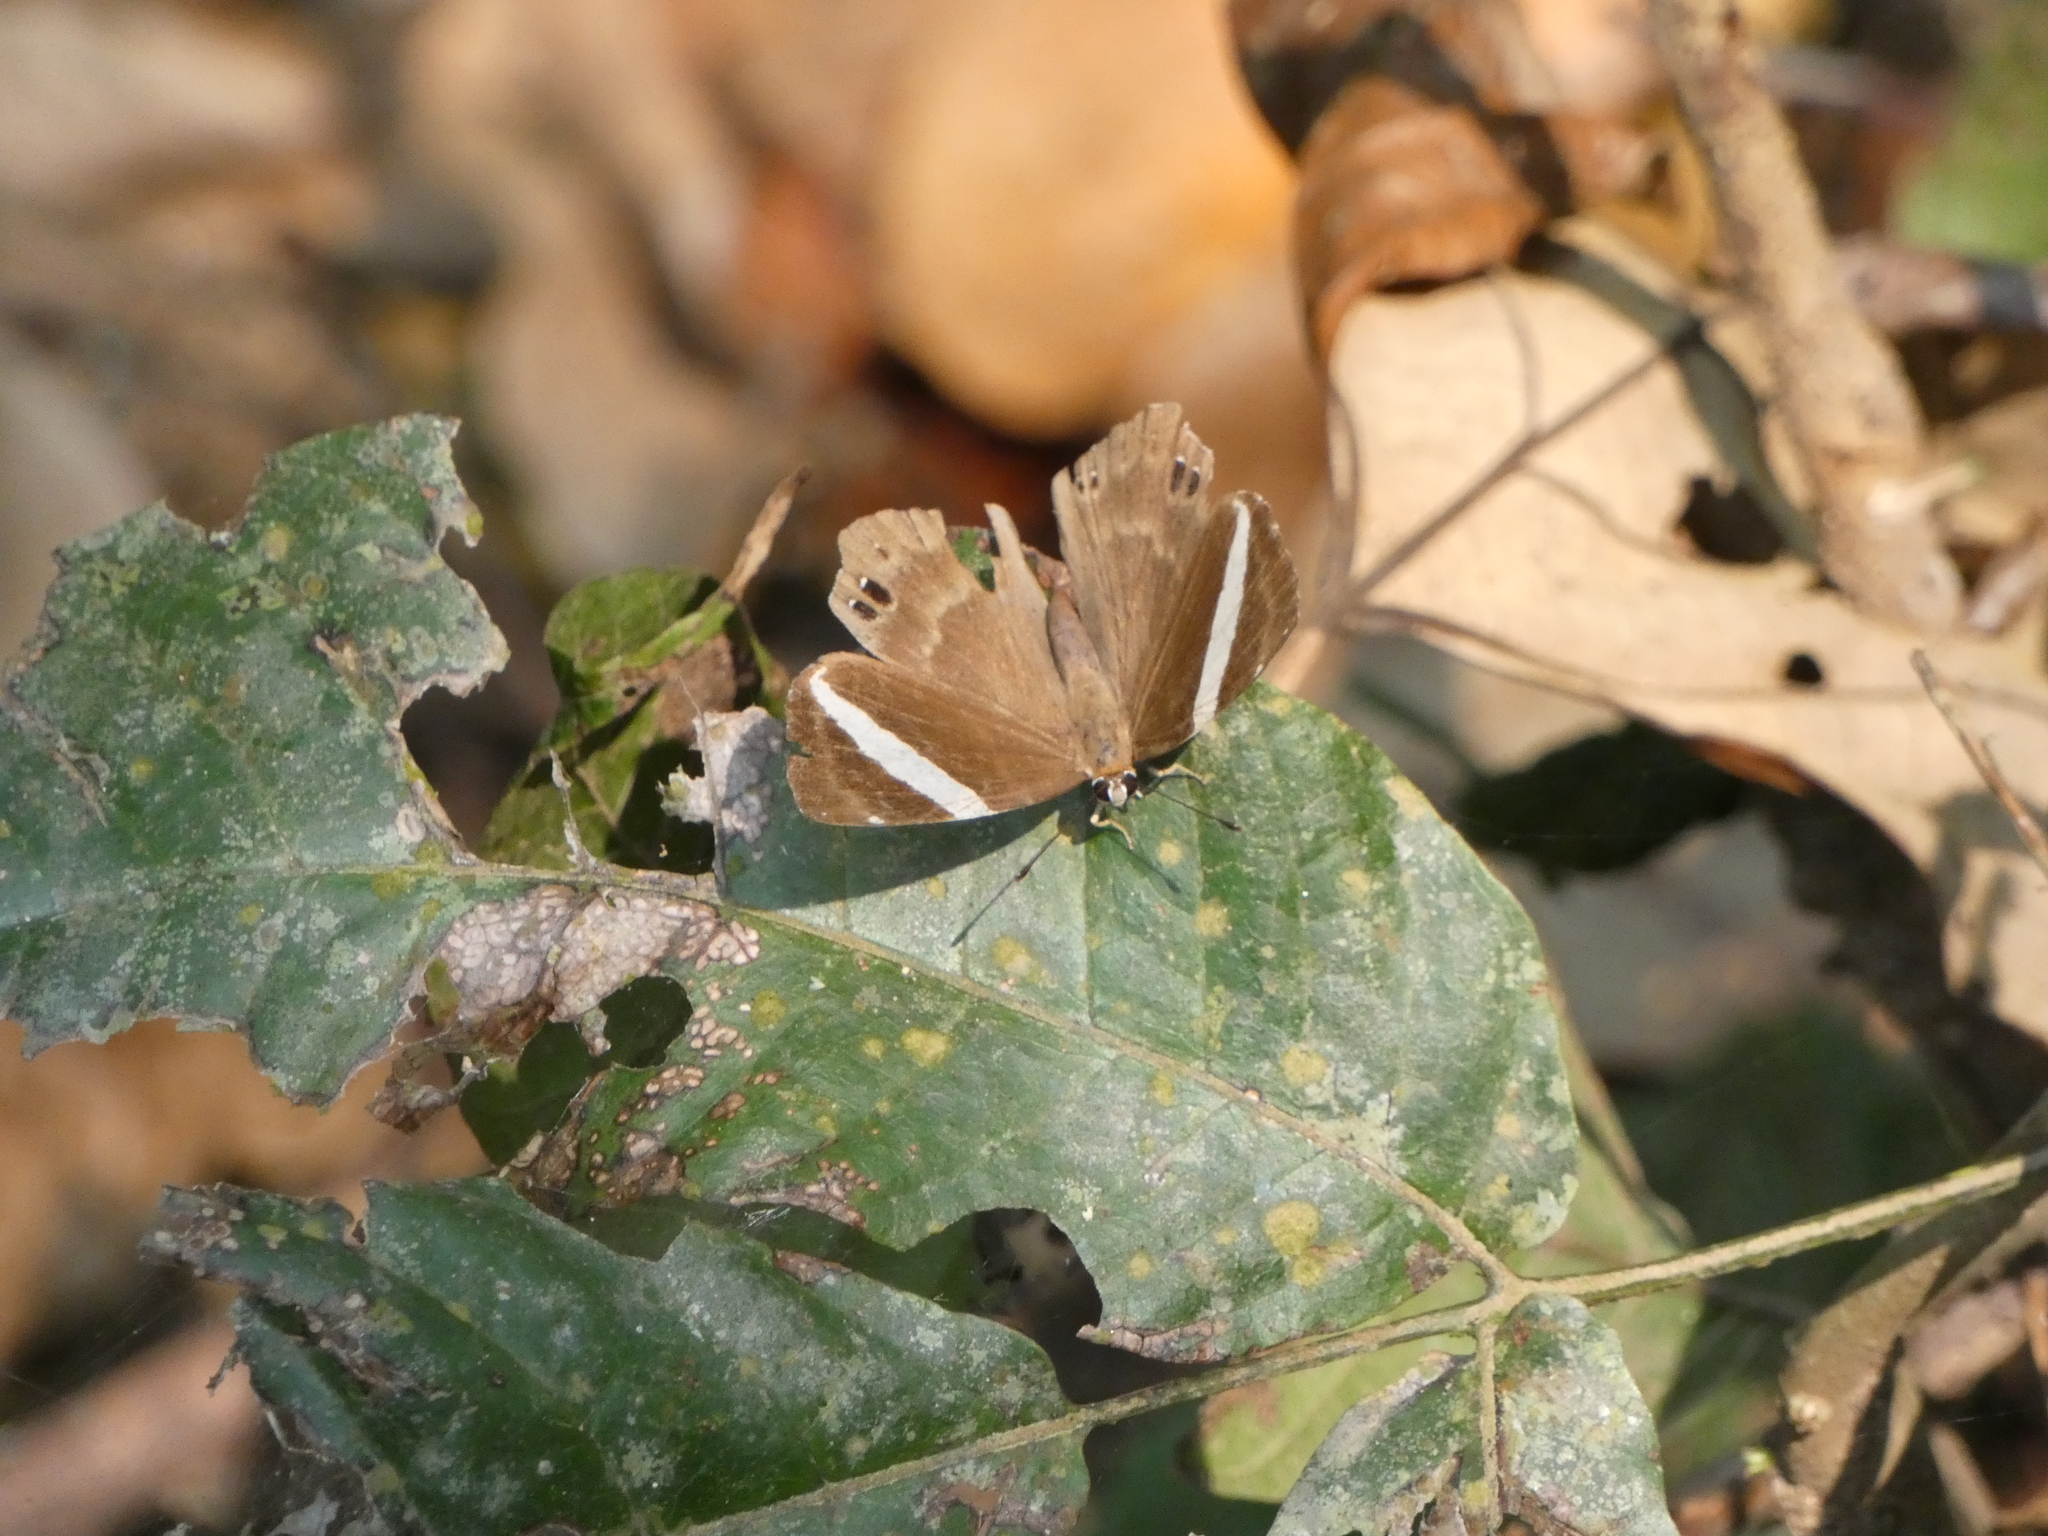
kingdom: Animalia
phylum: Arthropoda
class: Insecta
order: Lepidoptera
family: Lycaenidae
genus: Abisara
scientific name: Abisara fylla
